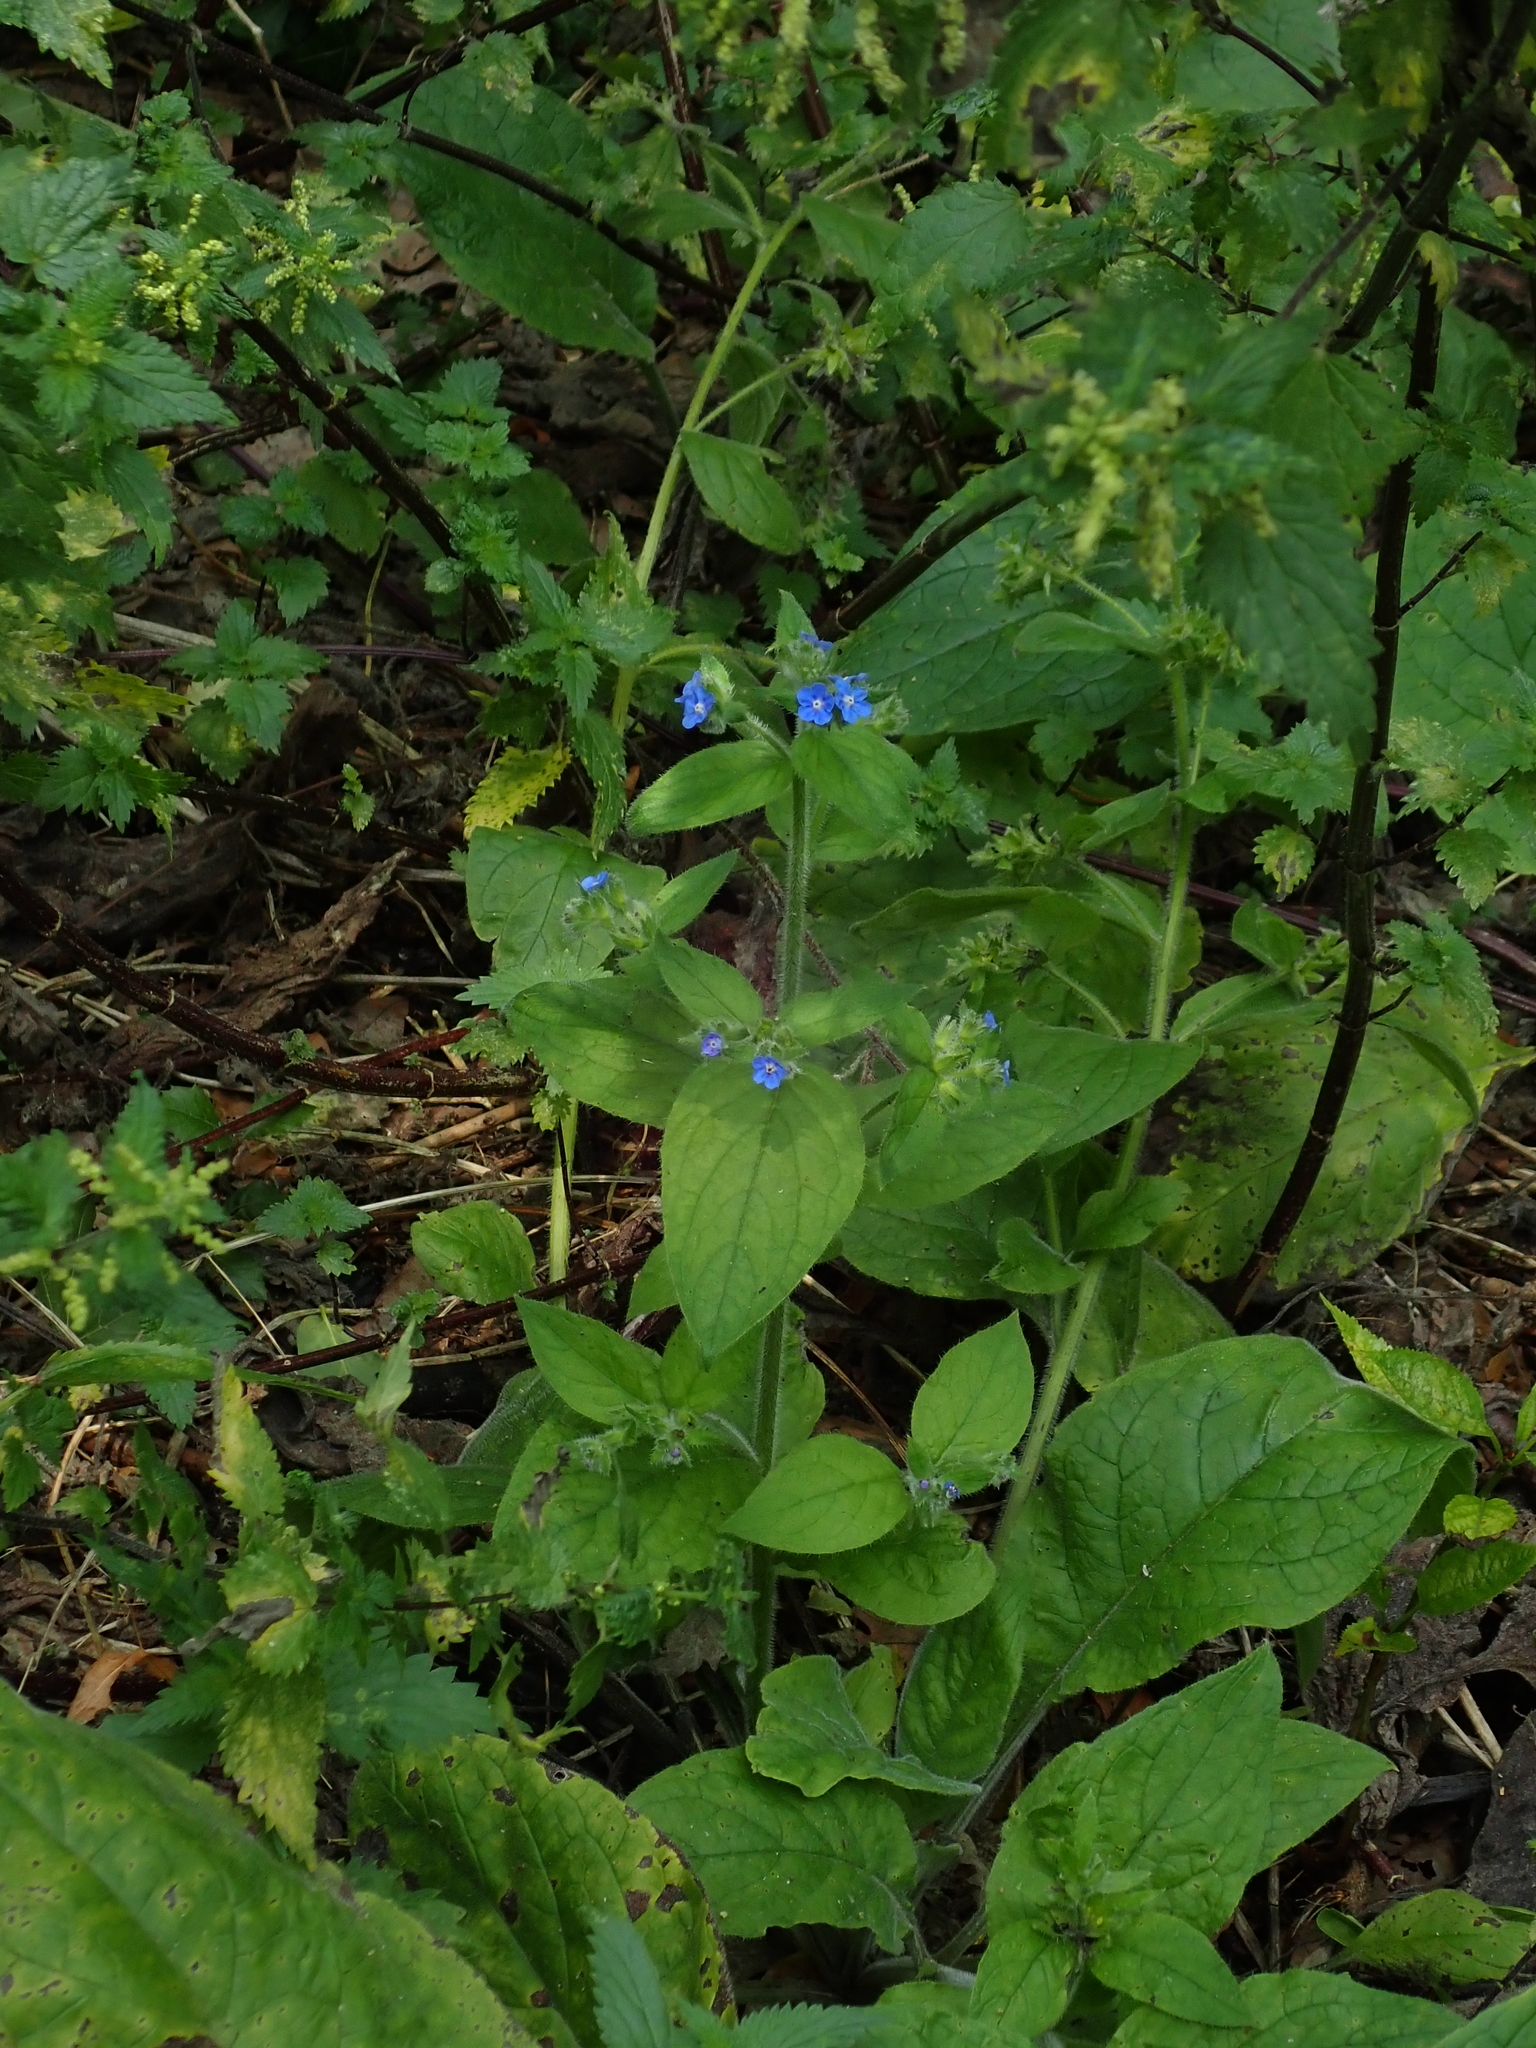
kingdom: Plantae
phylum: Tracheophyta
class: Magnoliopsida
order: Boraginales
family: Boraginaceae
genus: Pentaglottis
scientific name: Pentaglottis sempervirens
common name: Green alkanet
